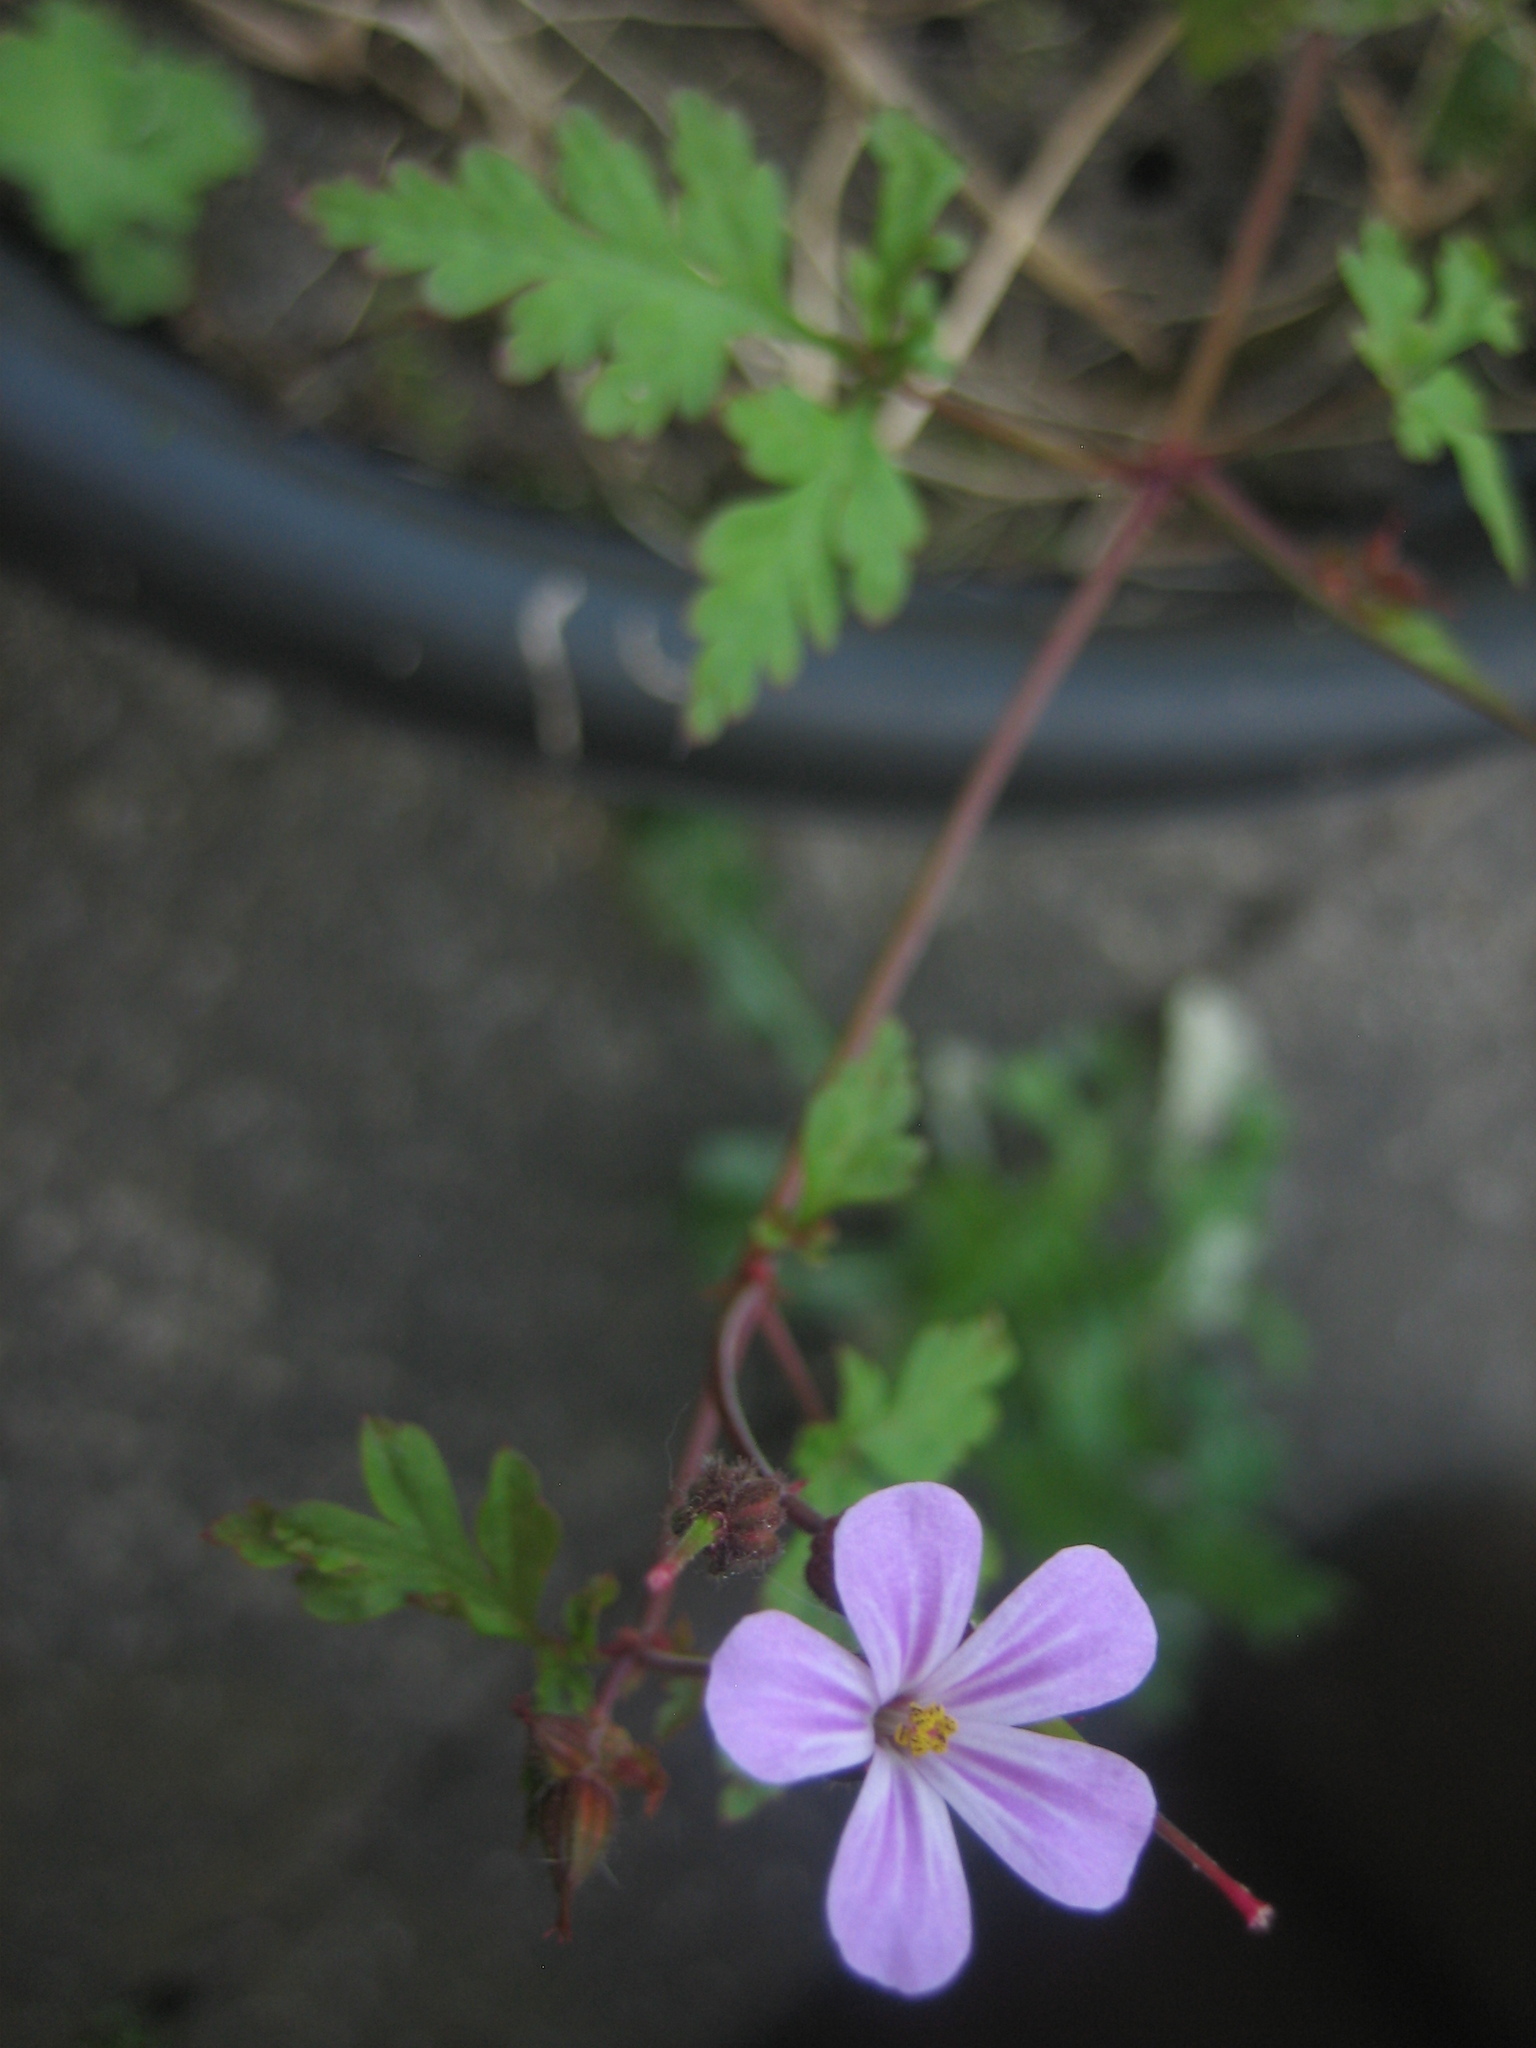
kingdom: Plantae
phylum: Tracheophyta
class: Magnoliopsida
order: Geraniales
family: Geraniaceae
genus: Geranium
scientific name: Geranium robertianum
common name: Herb-robert
